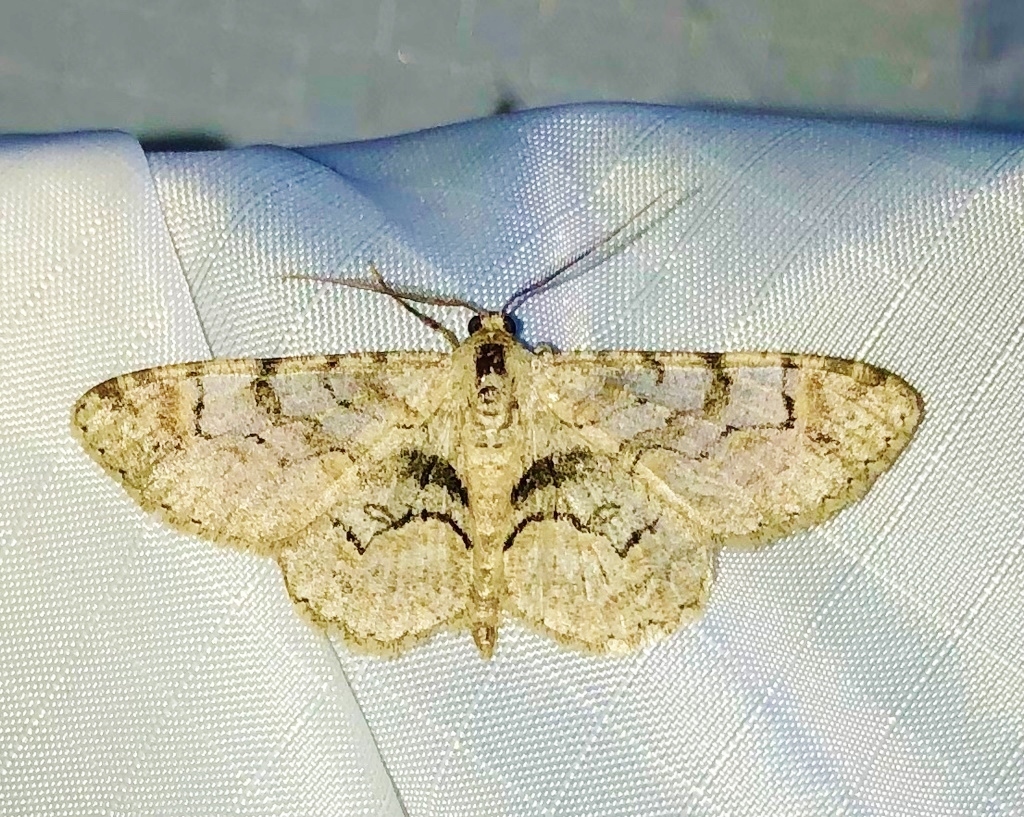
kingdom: Animalia
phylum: Arthropoda
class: Insecta
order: Lepidoptera
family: Geometridae
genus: Iridopsis
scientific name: Iridopsis larvaria
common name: Bent-line gray
